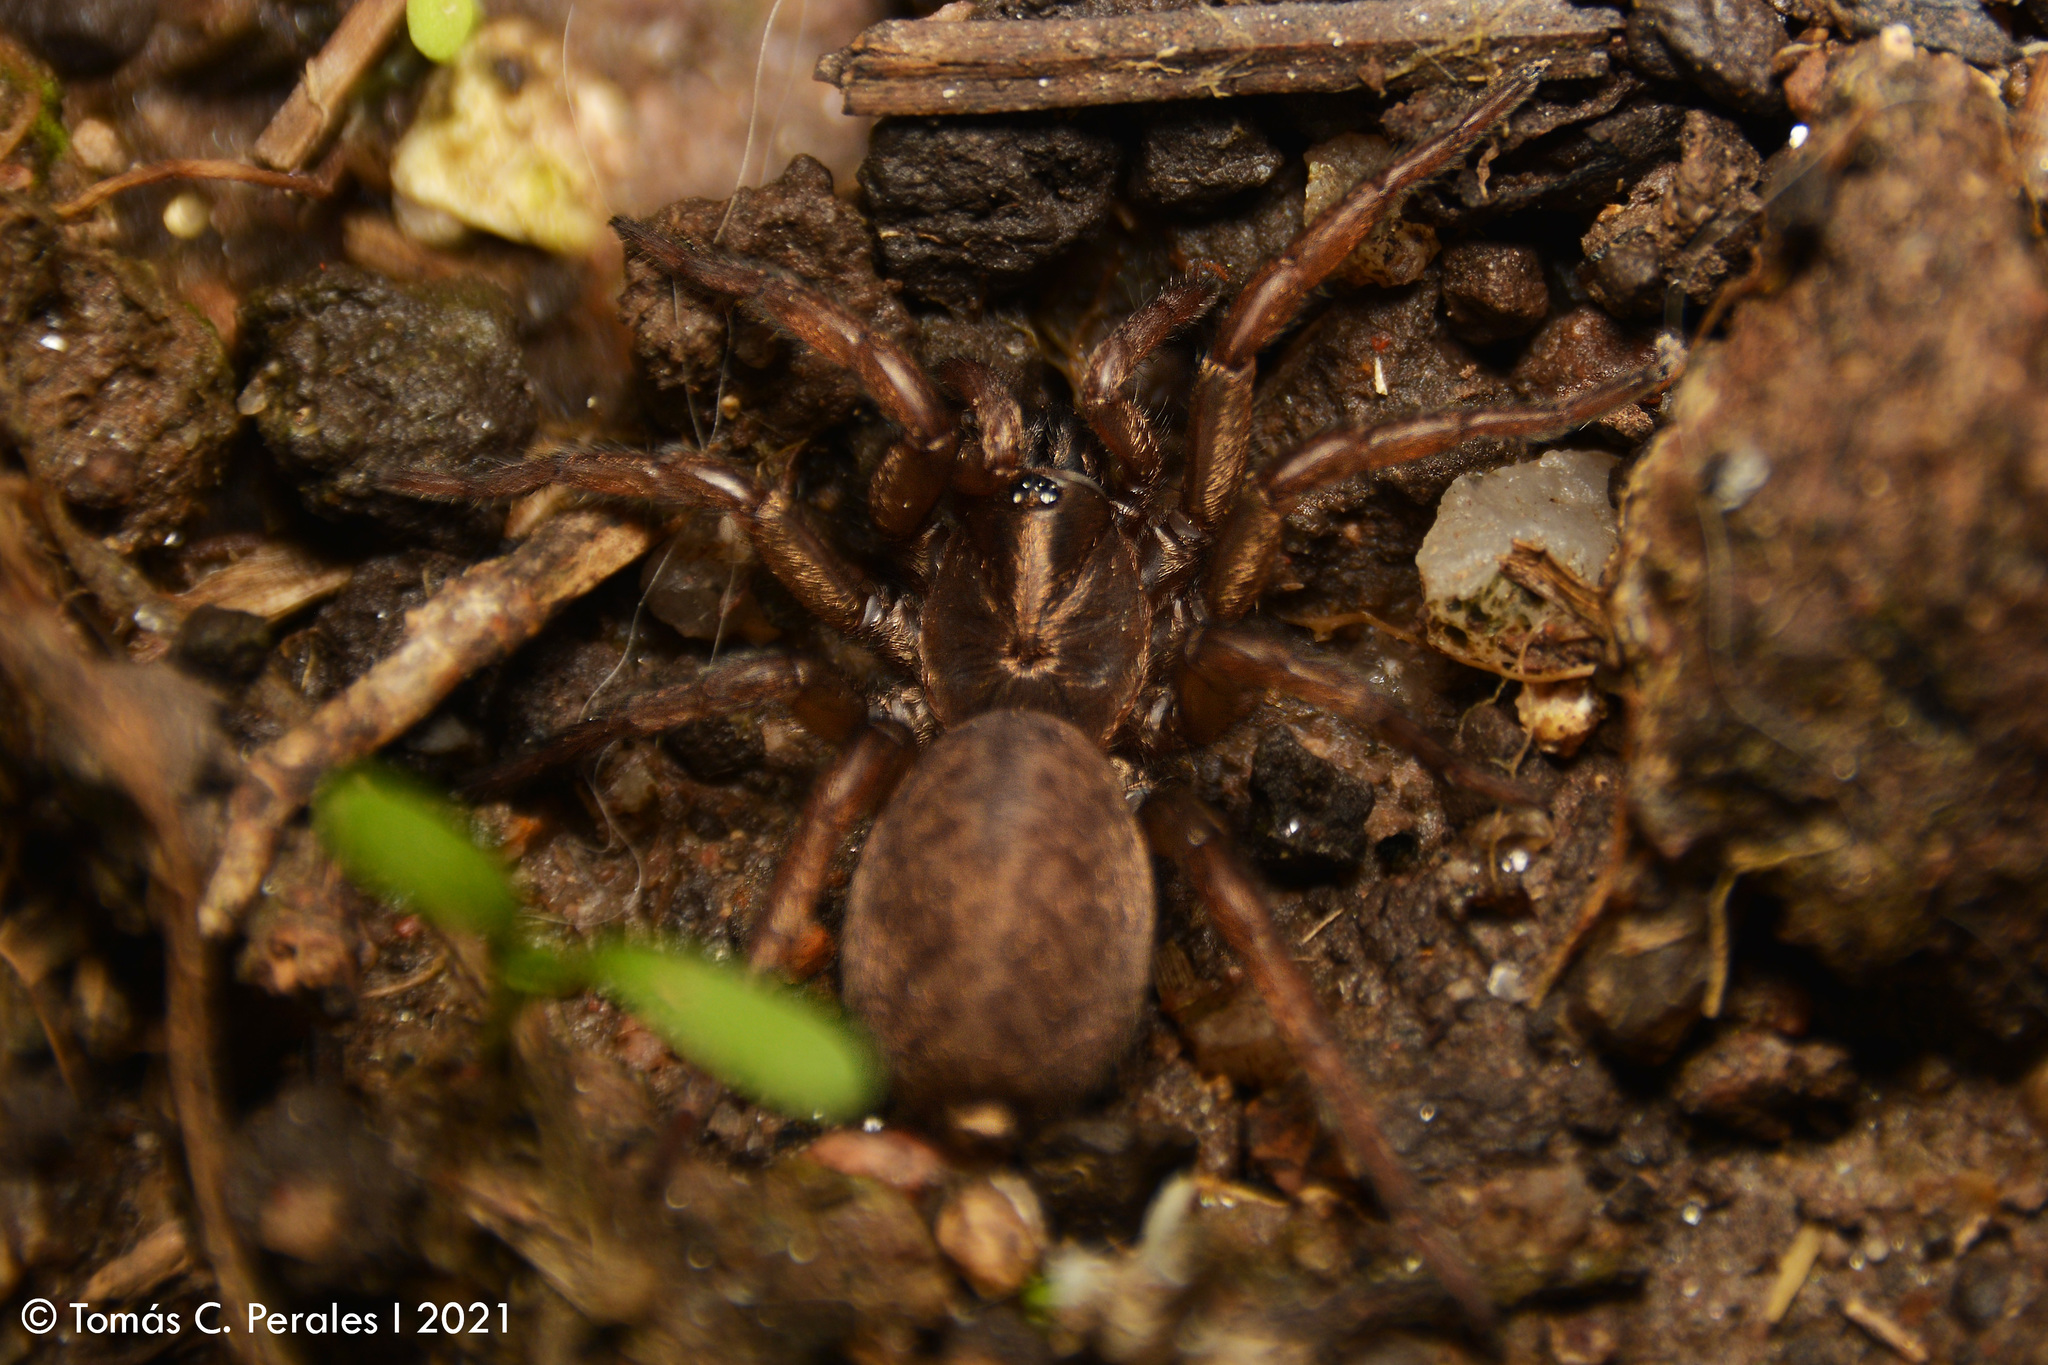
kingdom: Animalia
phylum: Arthropoda
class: Arachnida
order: Araneae
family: Pycnothelidae
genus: Acanthogonatus
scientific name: Acanthogonatus centralis
